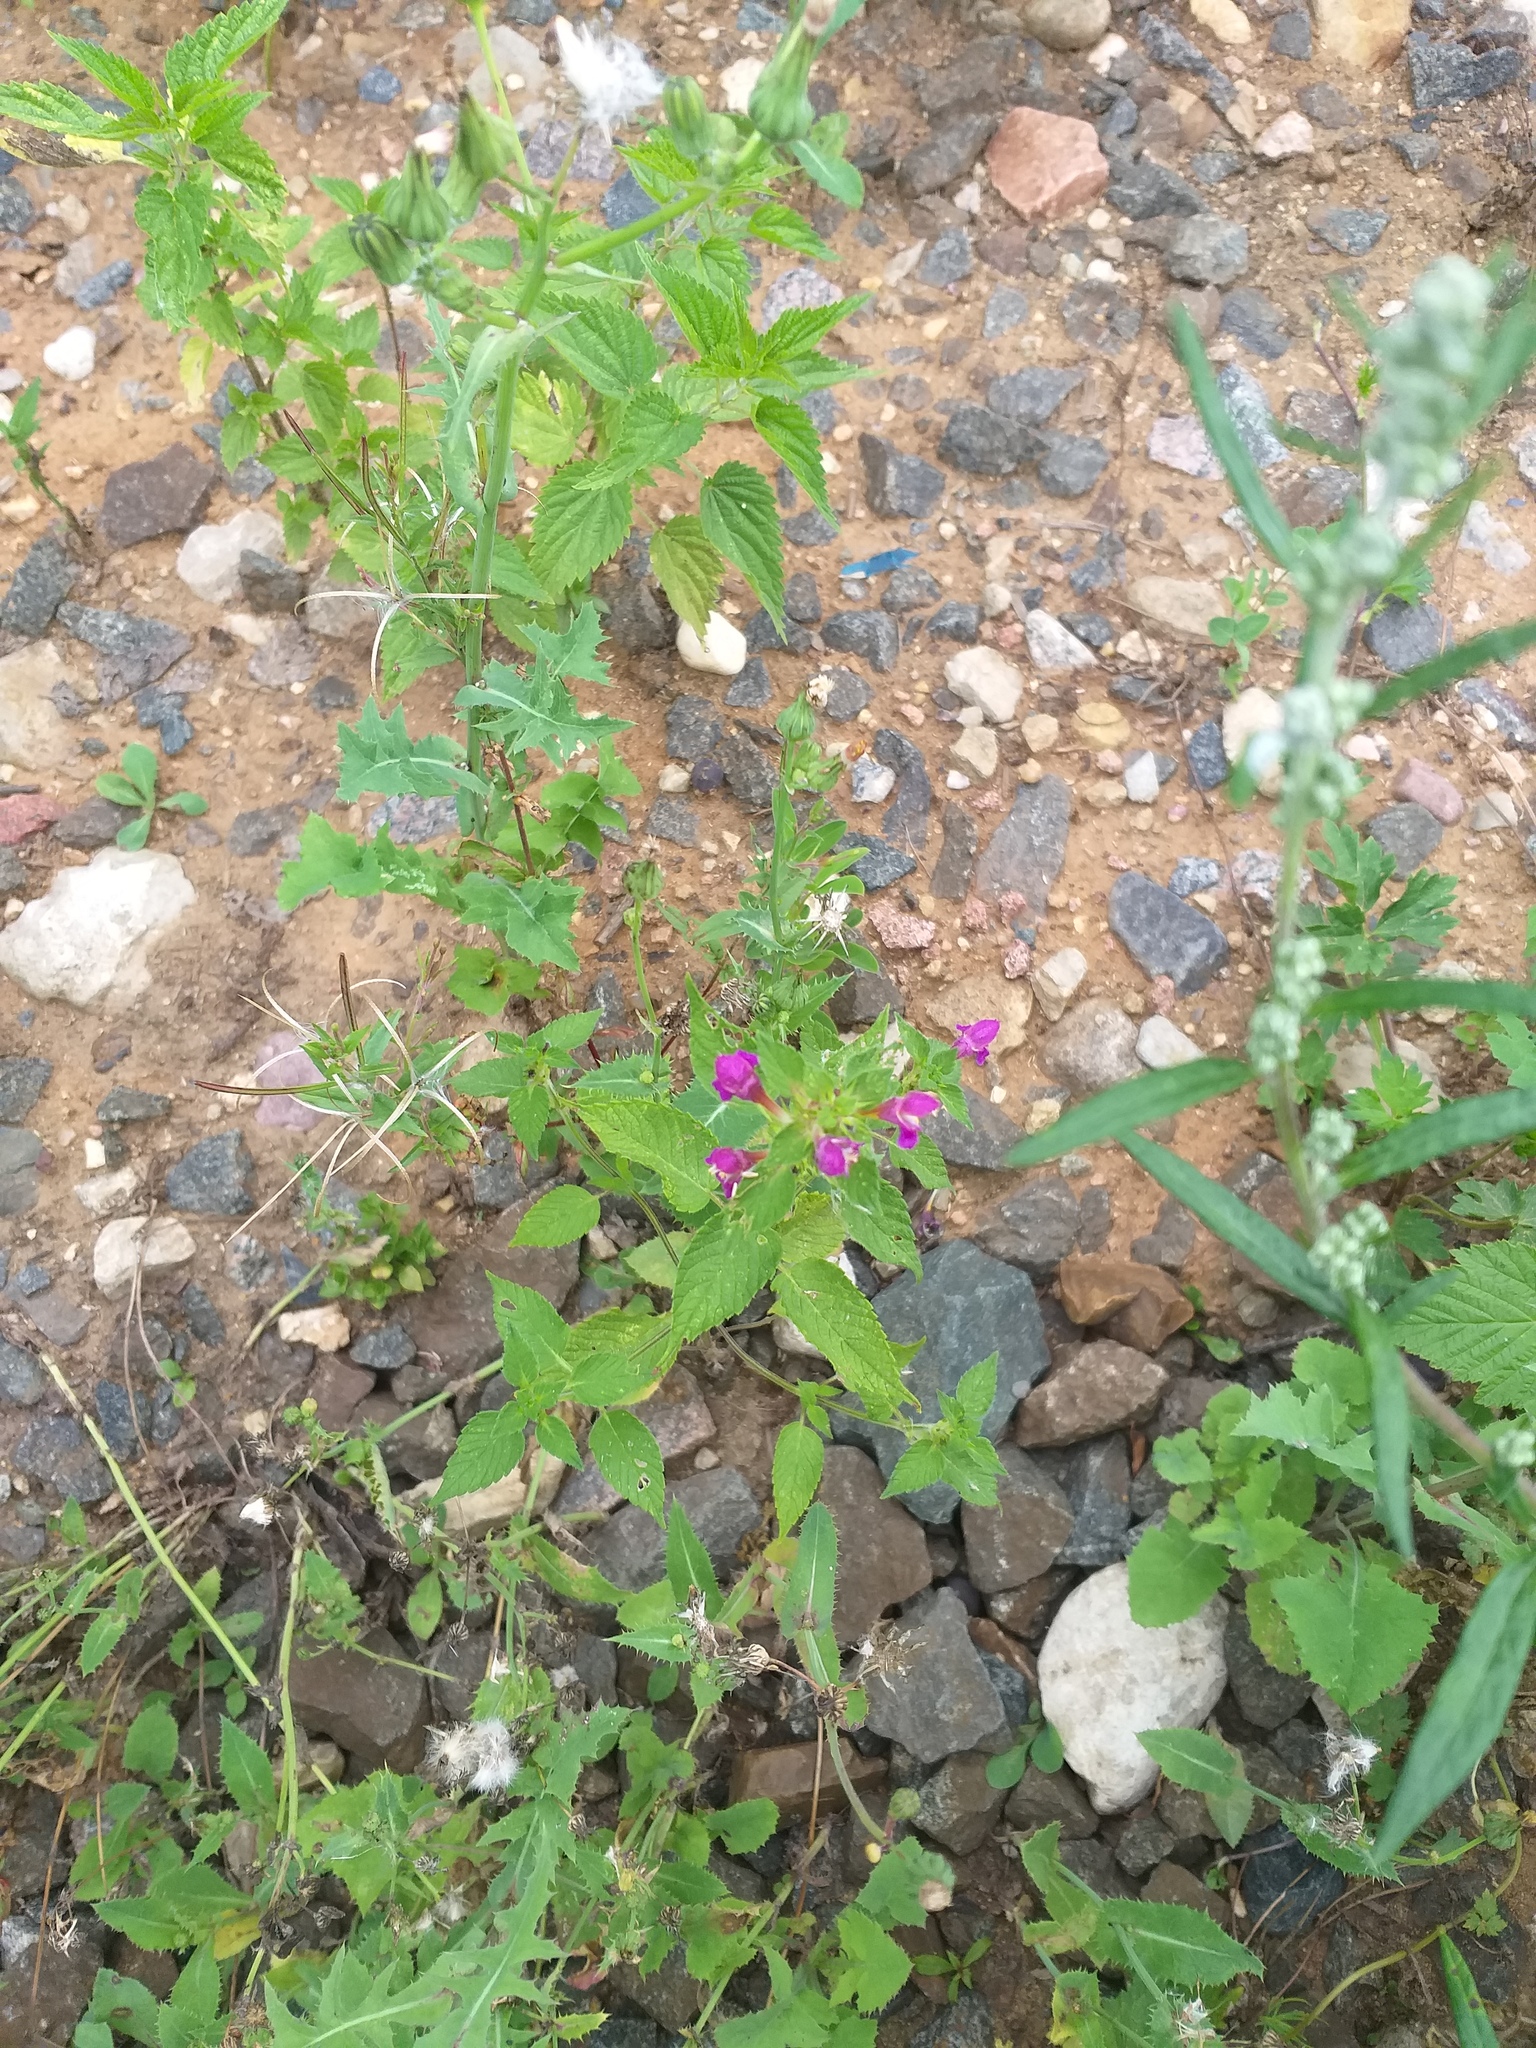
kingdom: Plantae
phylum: Tracheophyta
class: Magnoliopsida
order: Lamiales
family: Lamiaceae
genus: Galeopsis
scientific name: Galeopsis pubescens
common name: Downy hemp-nettle
